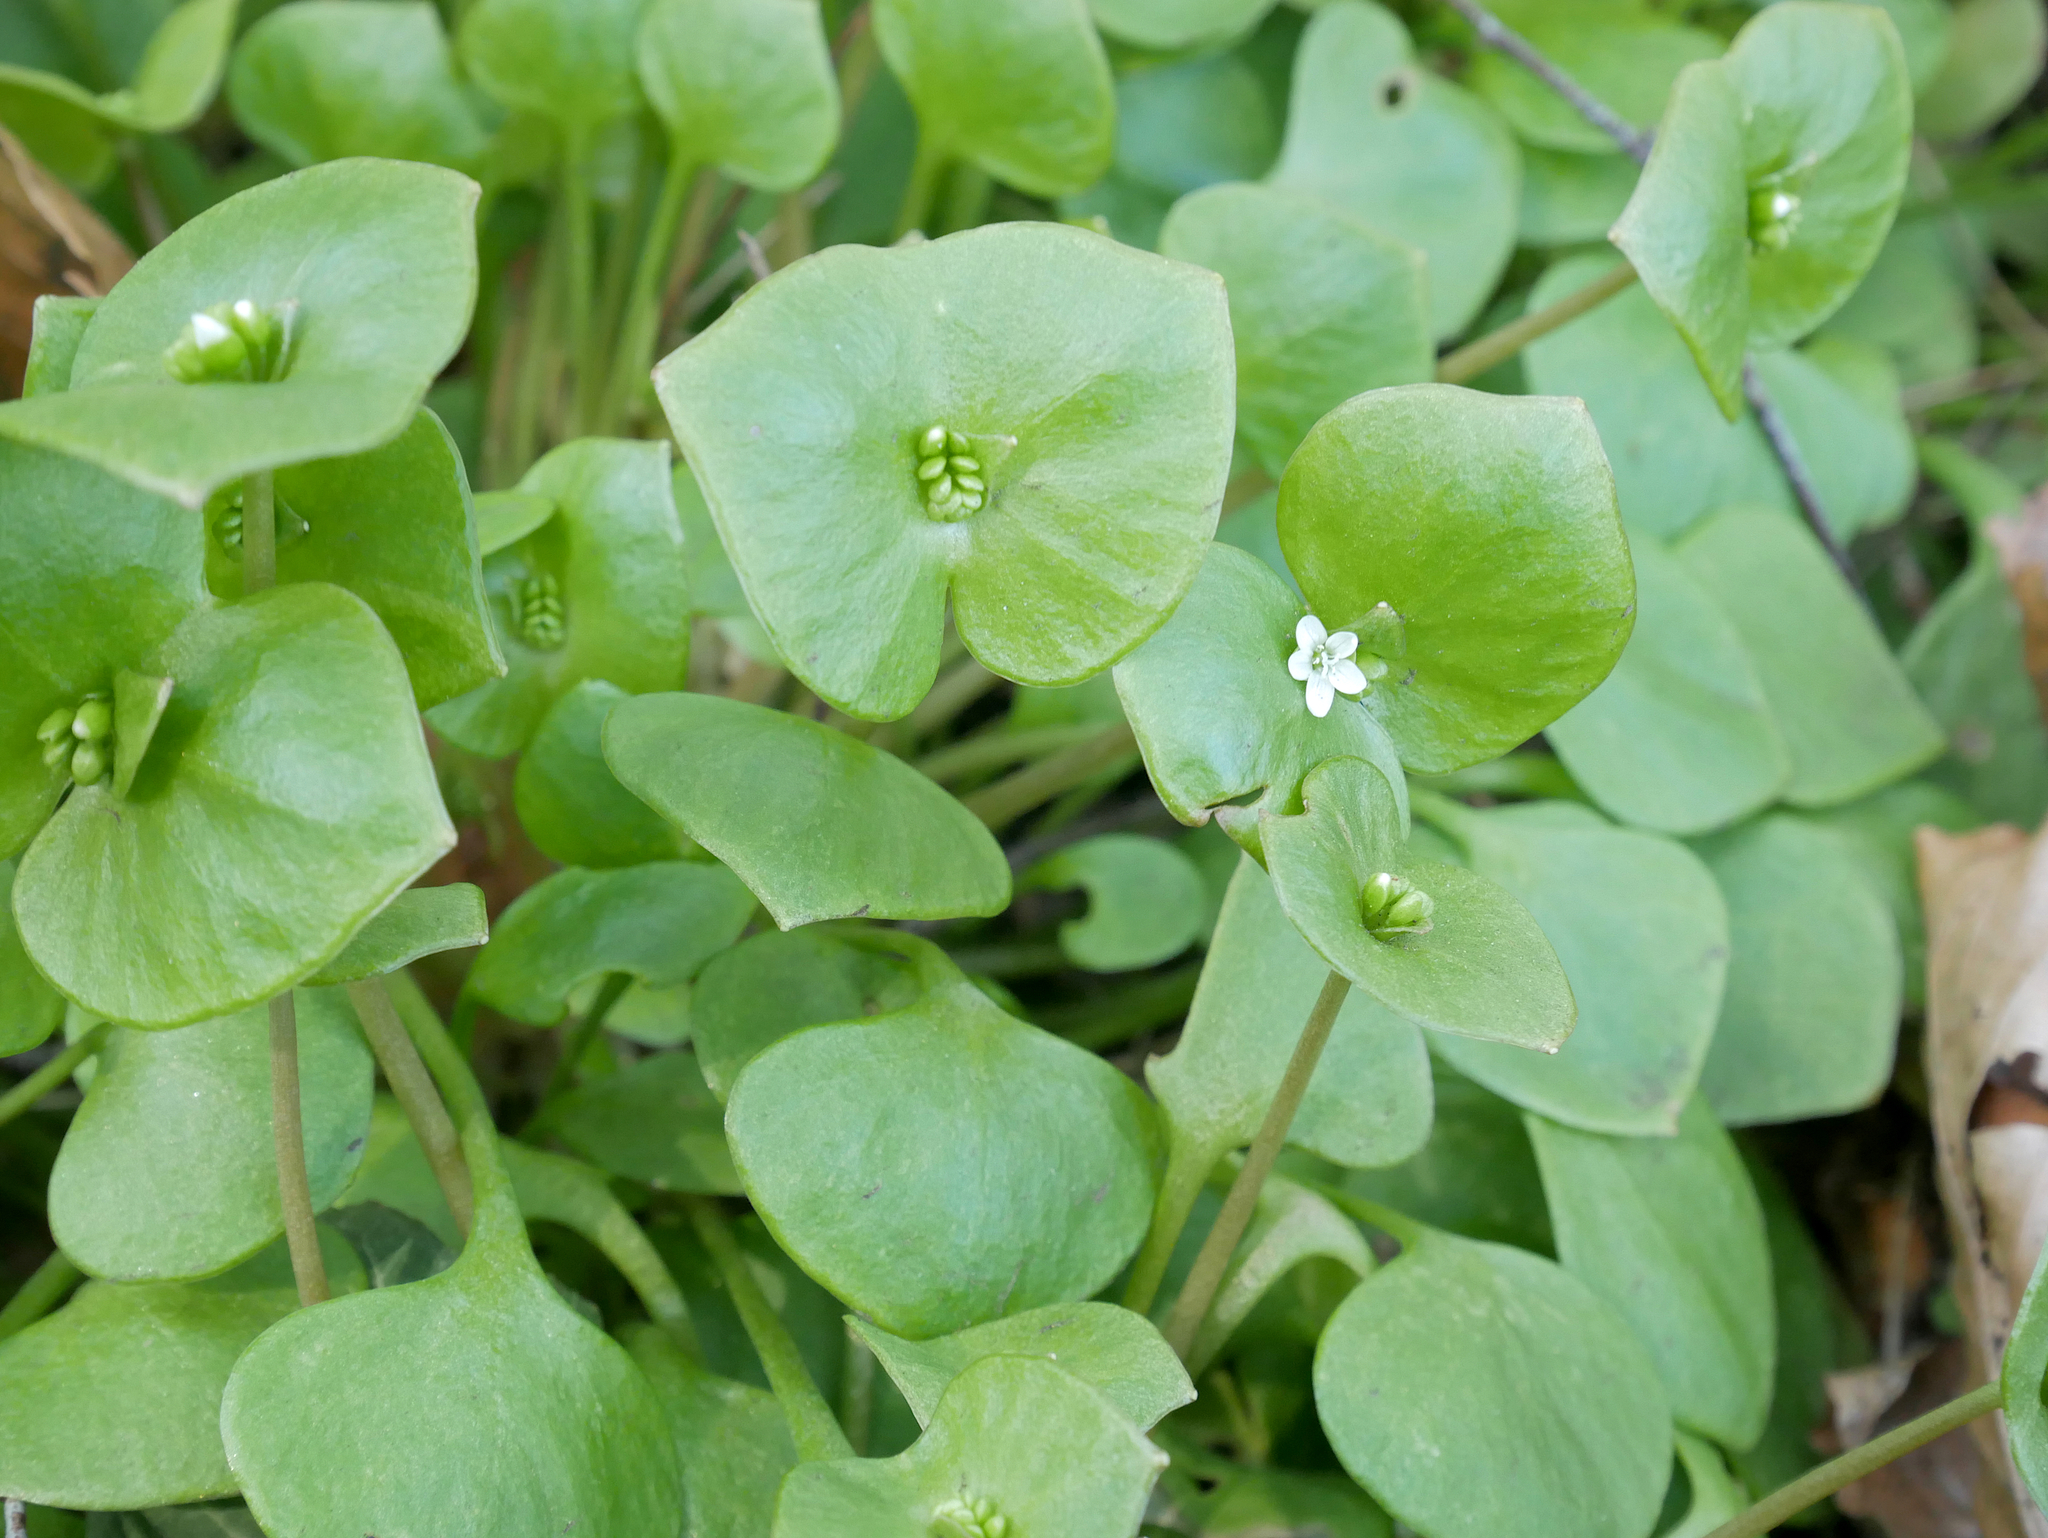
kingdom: Plantae
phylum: Tracheophyta
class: Magnoliopsida
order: Caryophyllales
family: Montiaceae
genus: Claytonia
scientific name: Claytonia perfoliata
